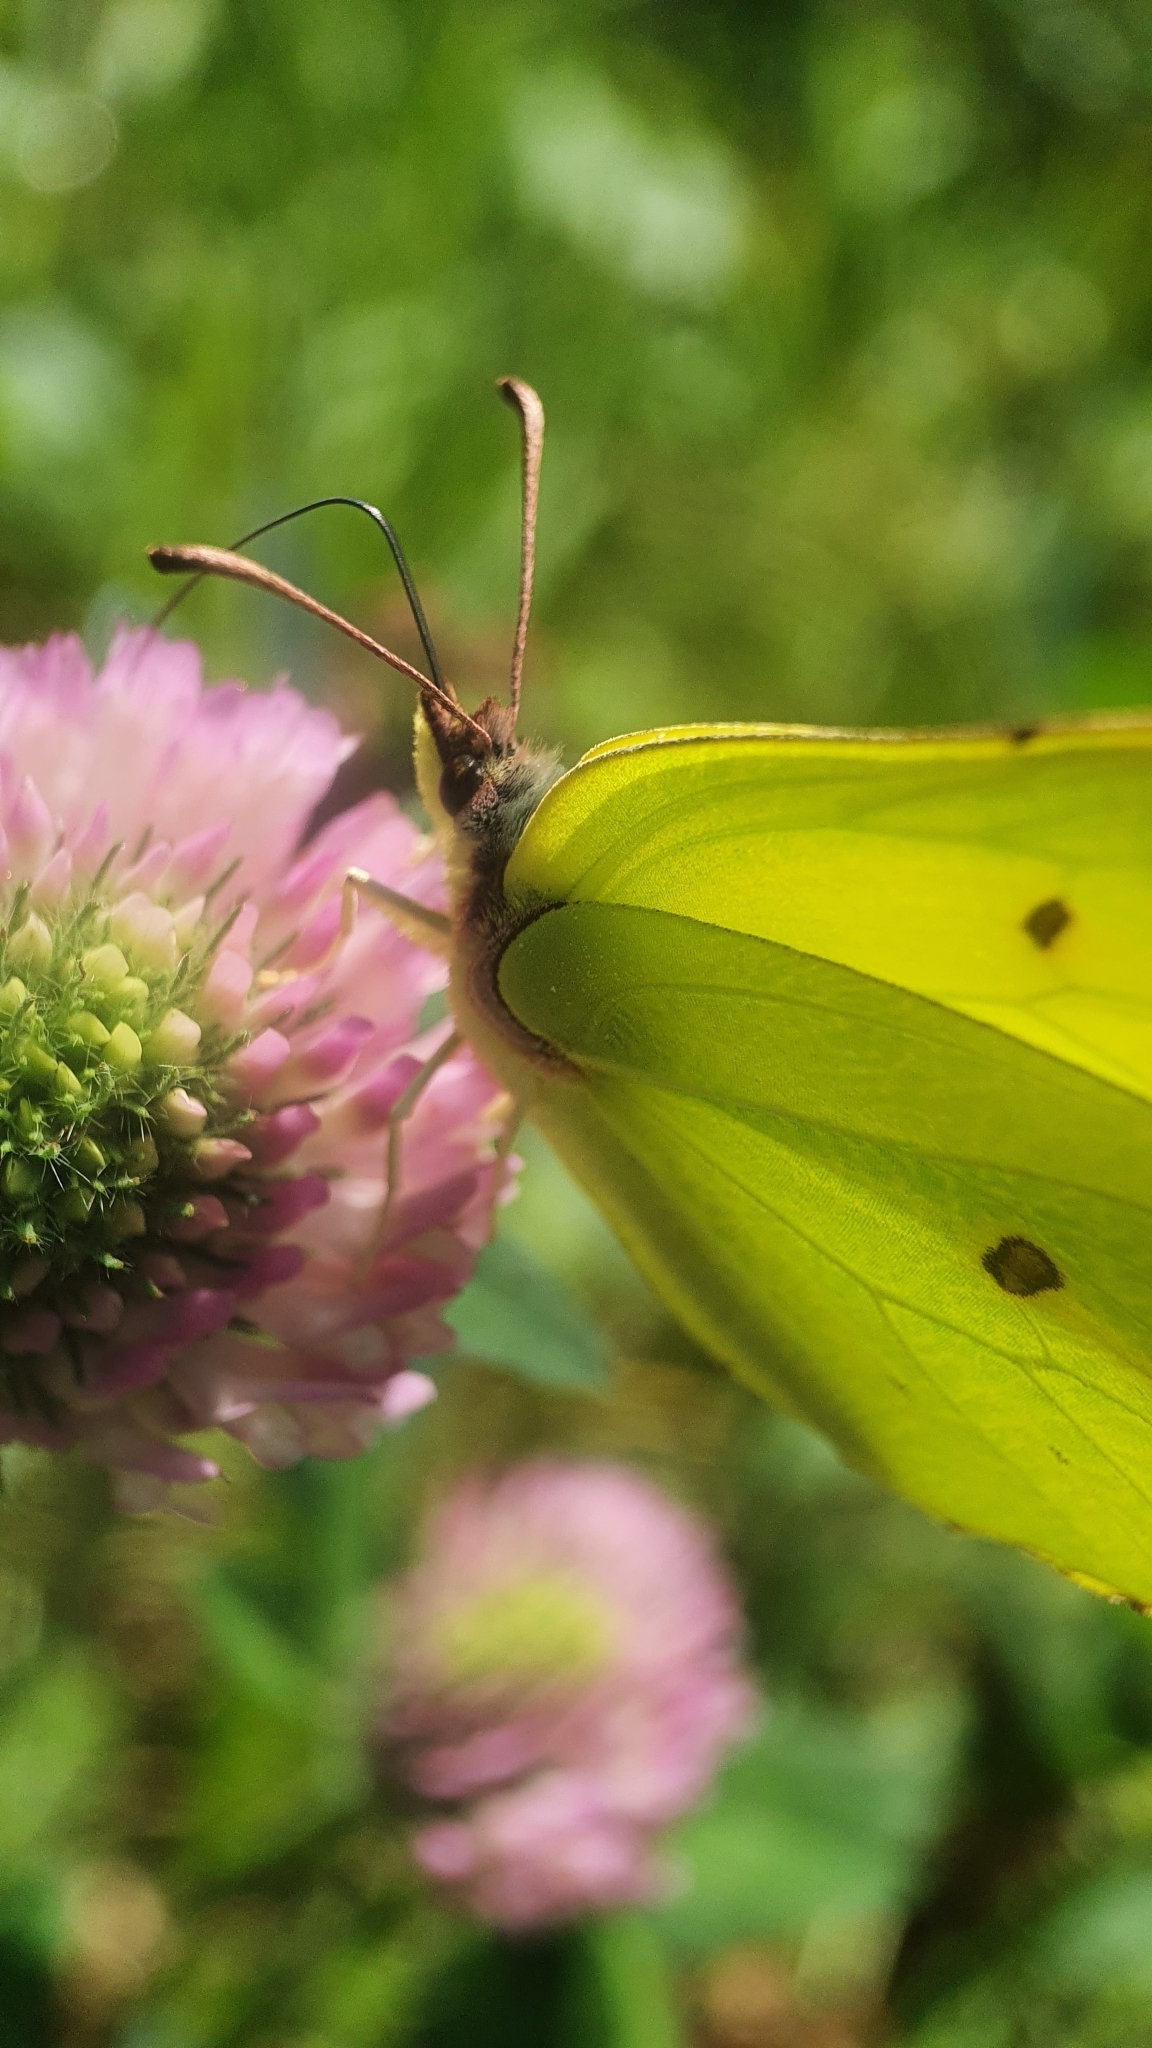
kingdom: Animalia
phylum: Arthropoda
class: Insecta
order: Lepidoptera
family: Pieridae
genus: Gonepteryx
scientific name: Gonepteryx rhamni
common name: Brimstone
